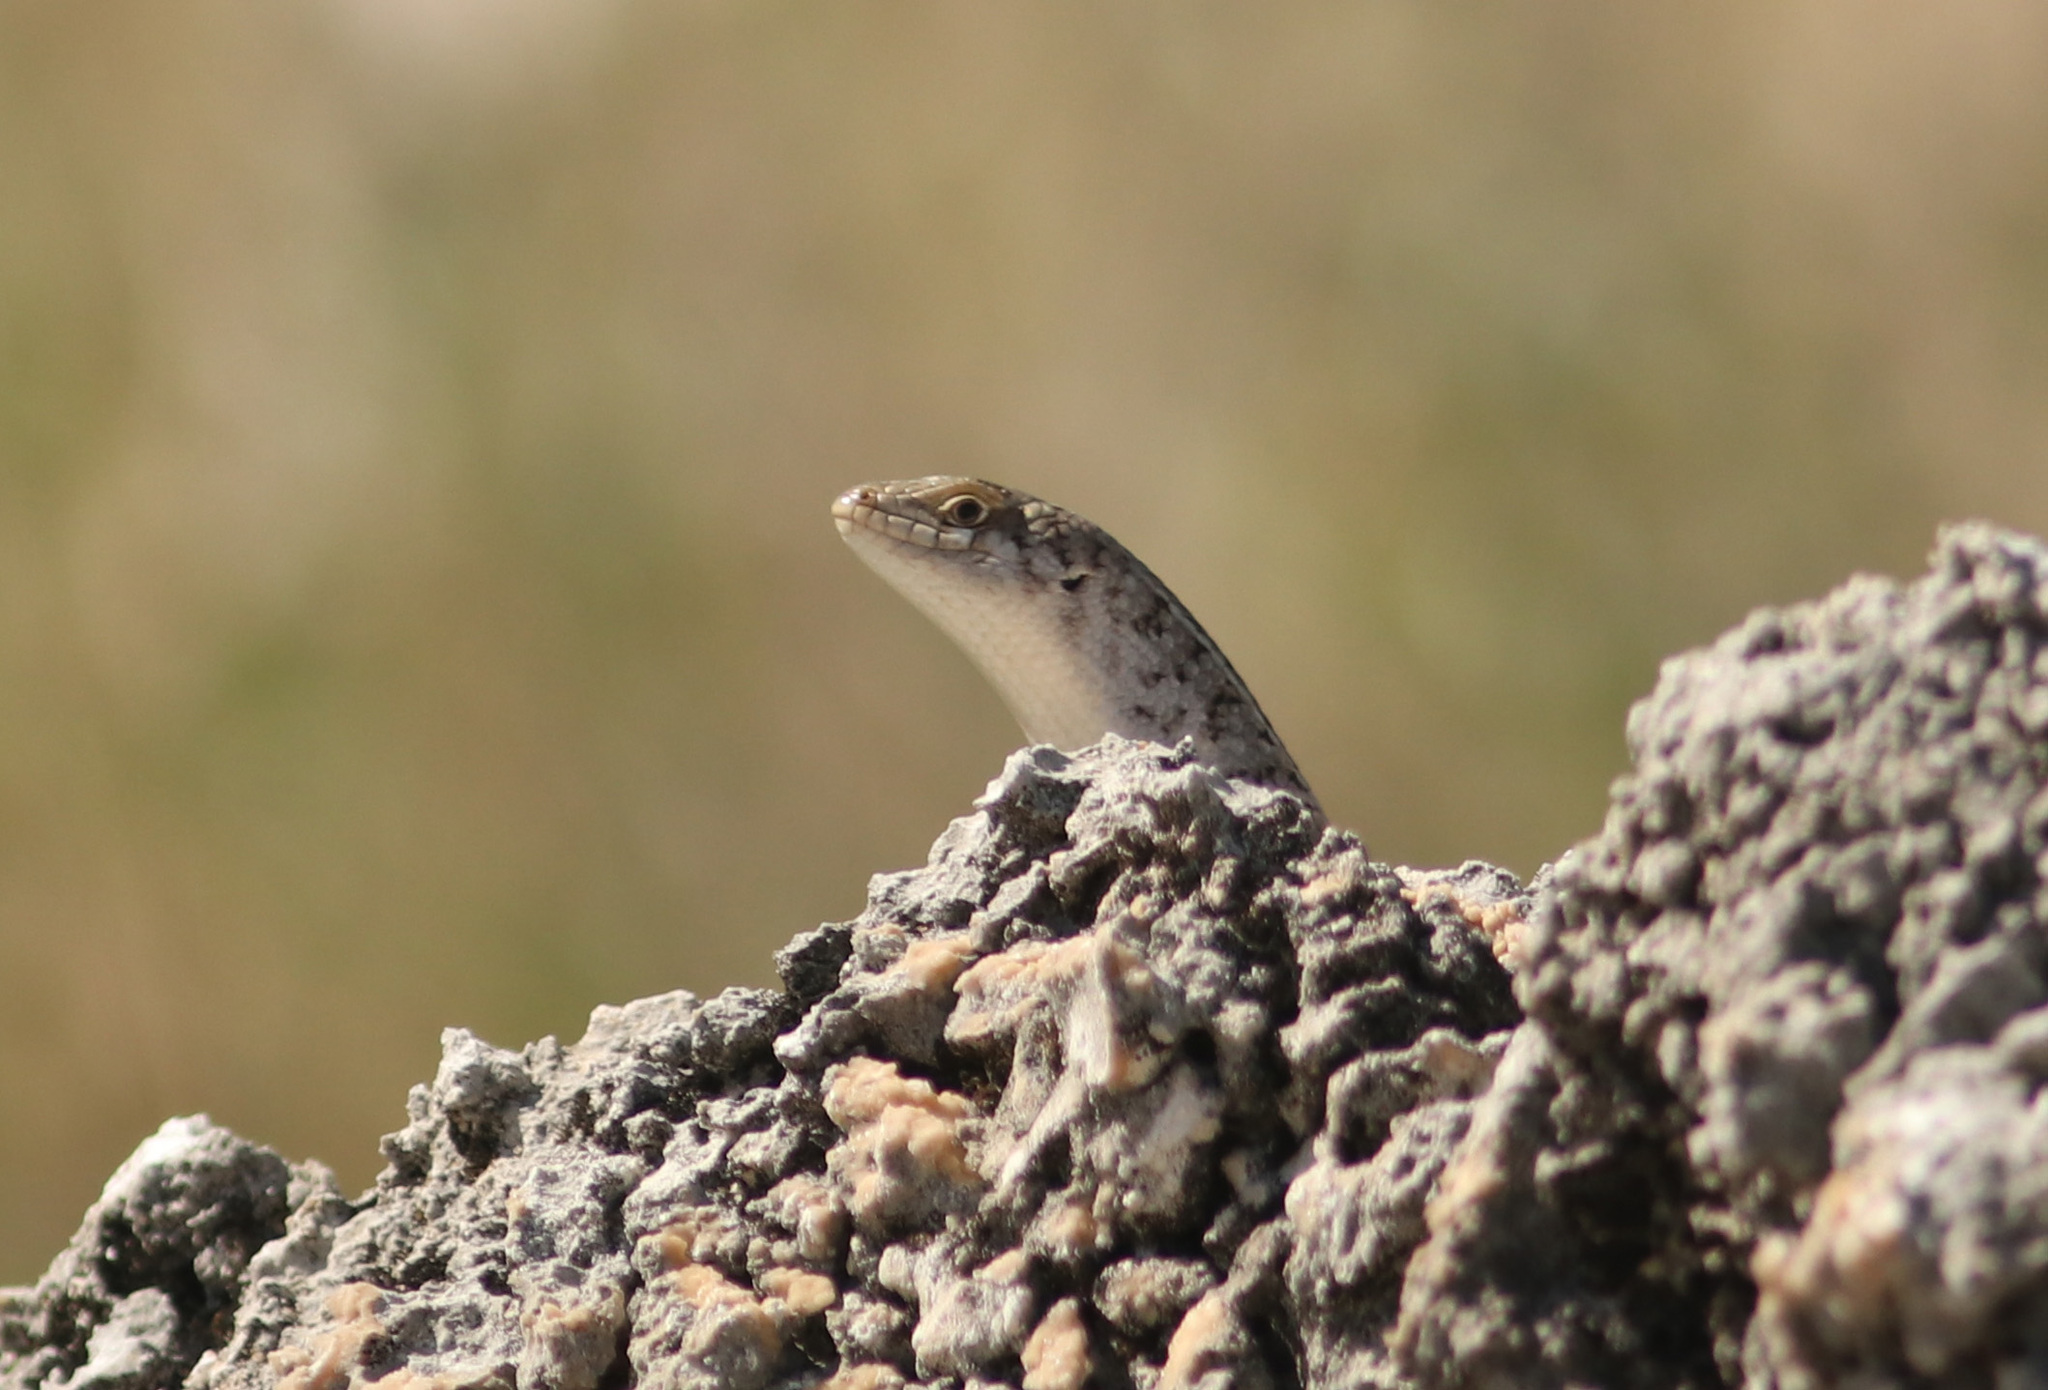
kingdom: Animalia
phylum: Chordata
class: Squamata
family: Scincidae
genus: Trachylepis
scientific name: Trachylepis capensis
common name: Cape skink
